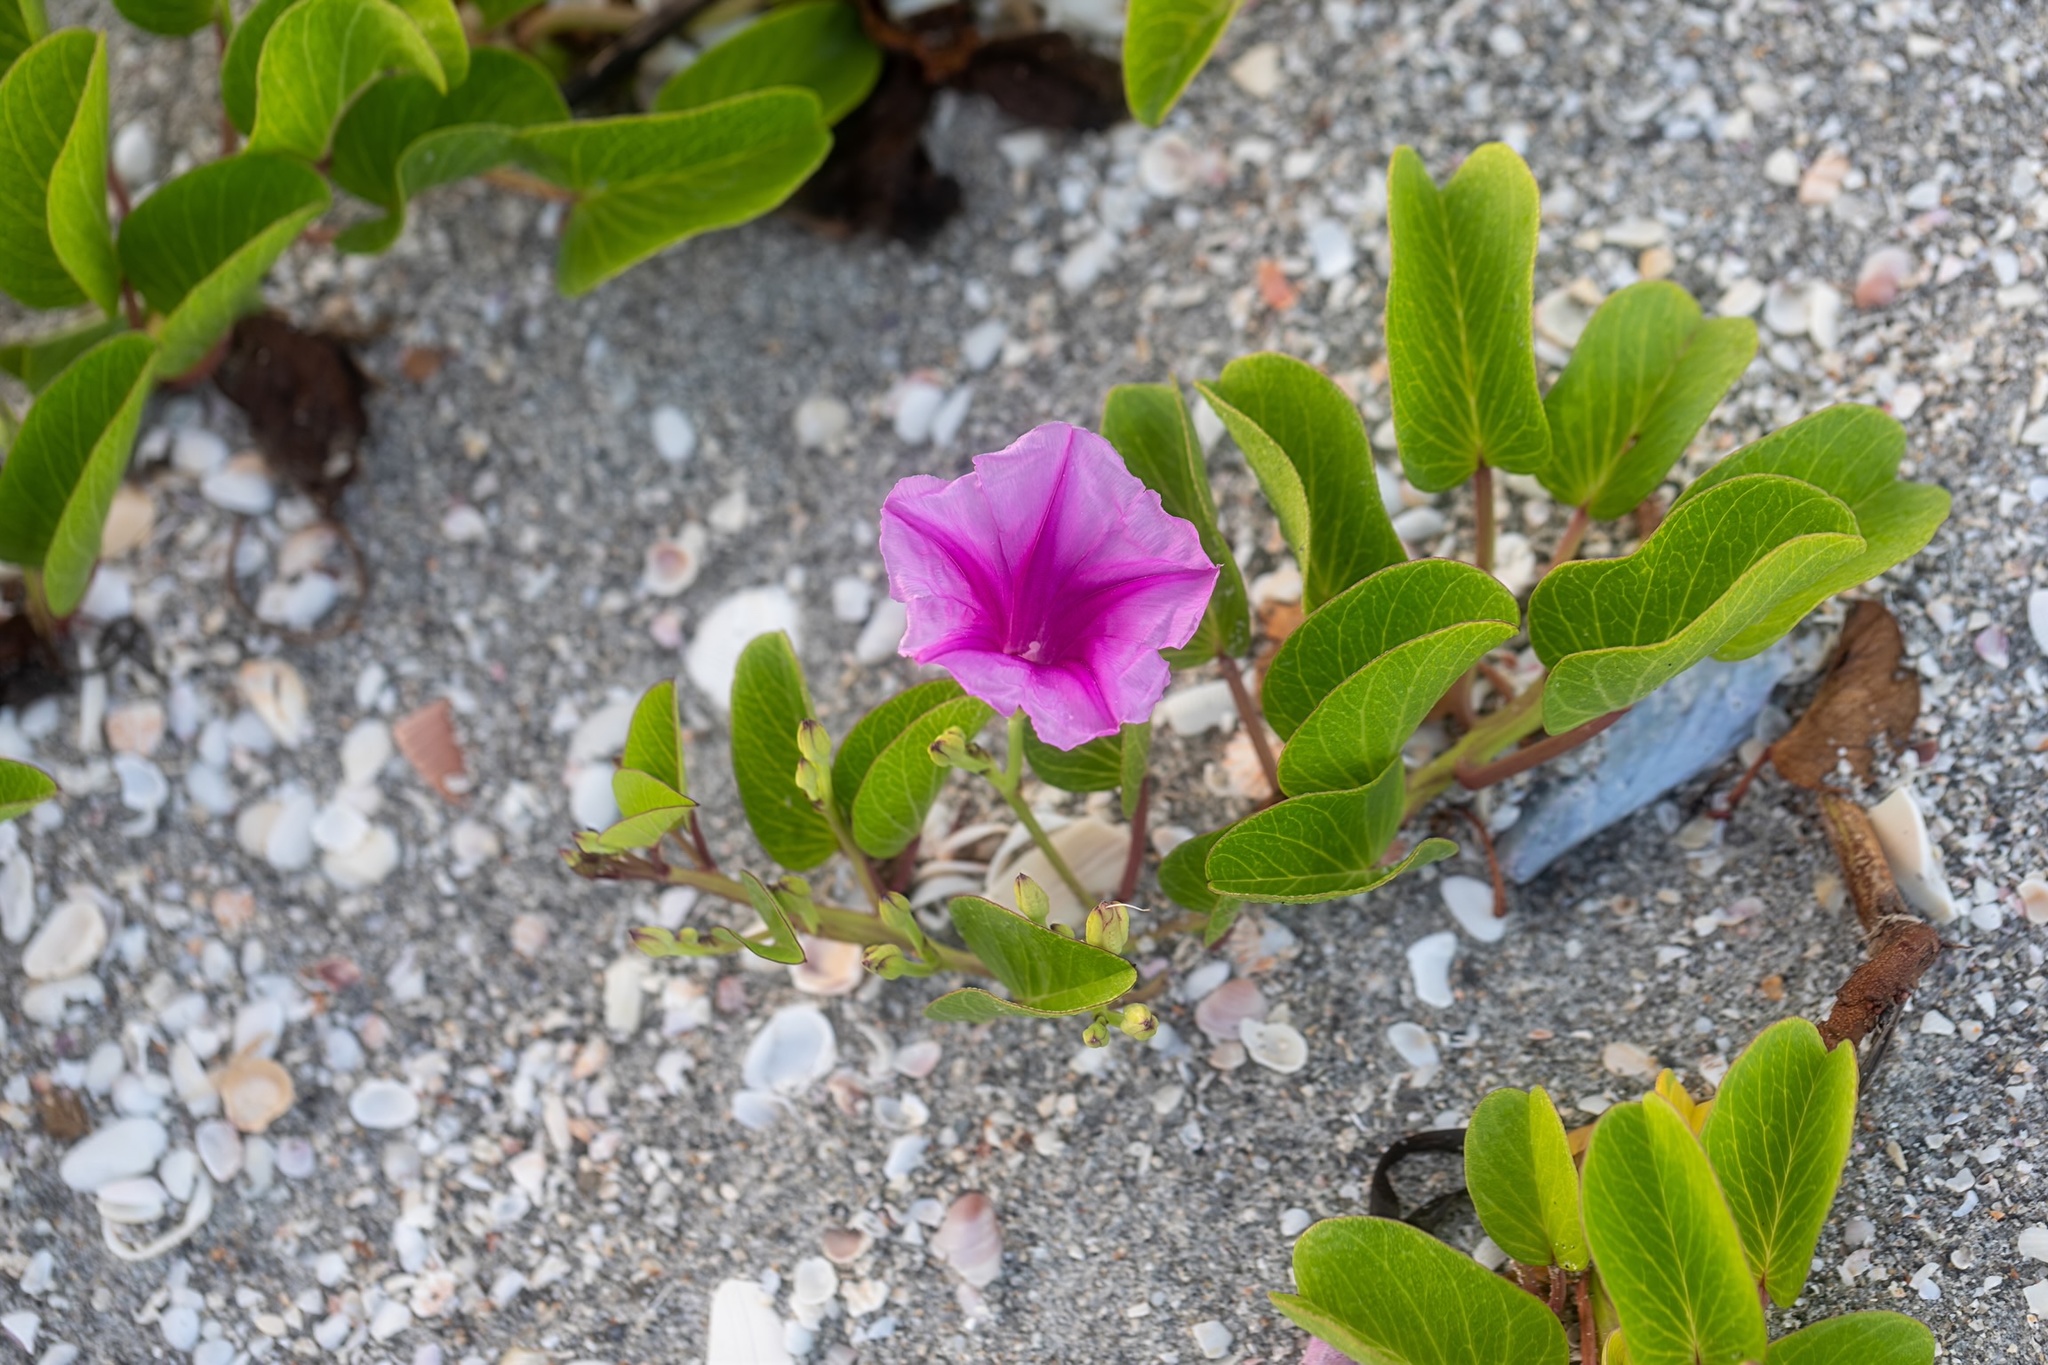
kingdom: Plantae
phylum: Tracheophyta
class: Magnoliopsida
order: Solanales
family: Convolvulaceae
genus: Ipomoea
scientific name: Ipomoea pes-caprae
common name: Beach morning glory
